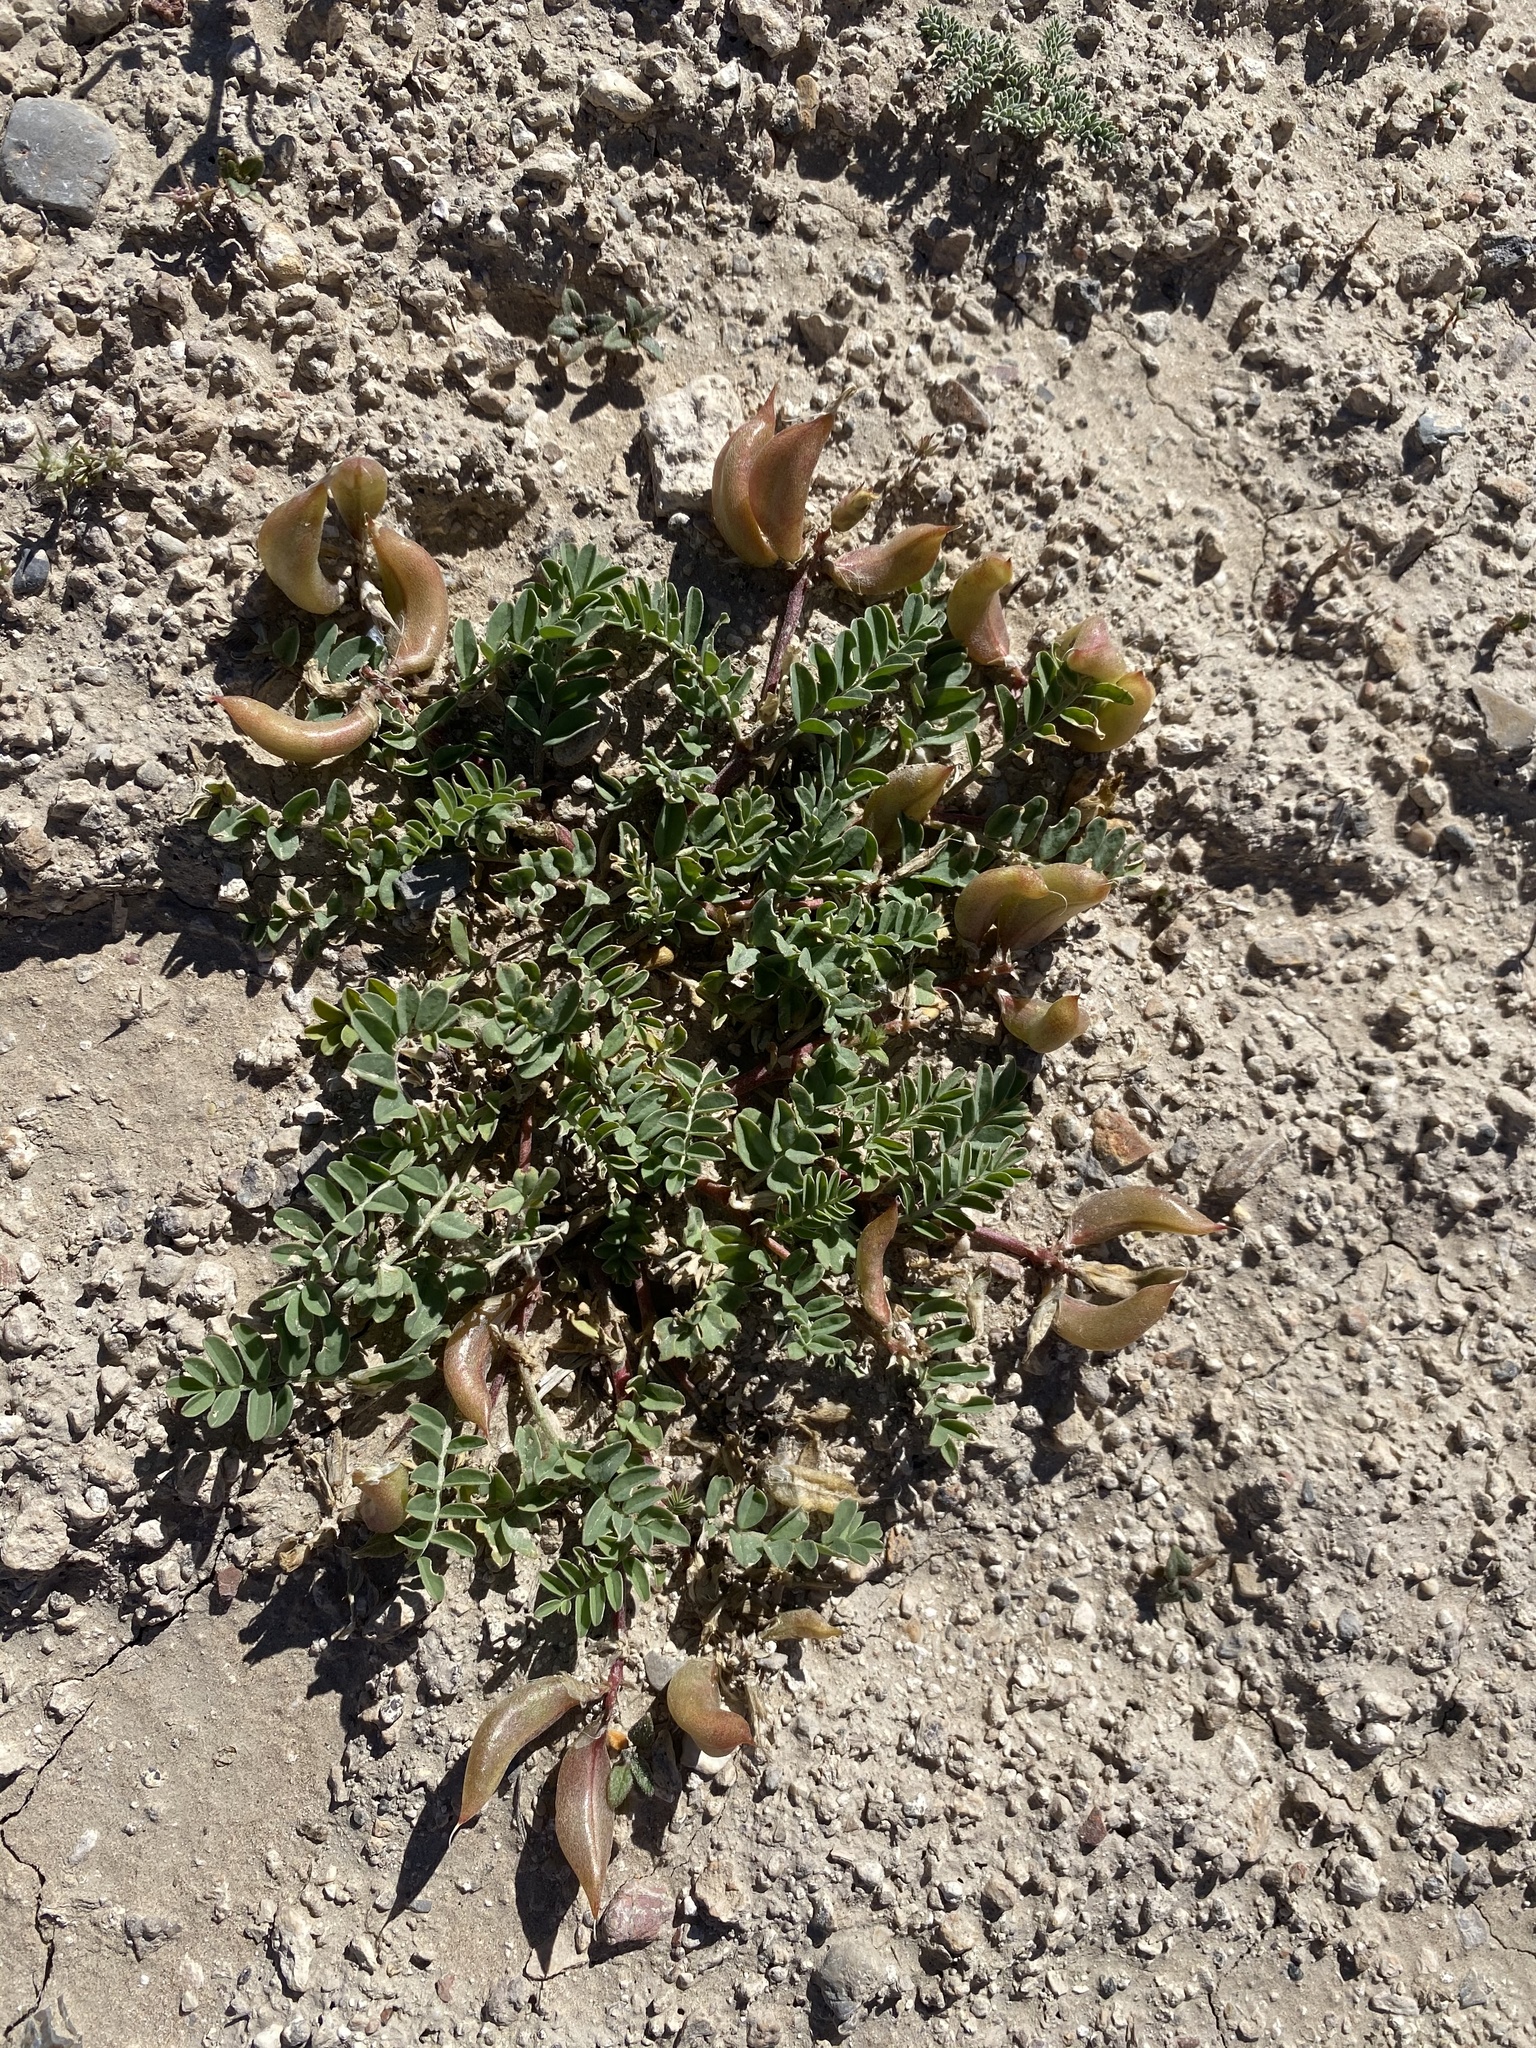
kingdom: Plantae
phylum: Tracheophyta
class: Magnoliopsida
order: Fabales
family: Fabaceae
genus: Astragalus
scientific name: Astragalus cibarius
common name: Browse milk-vetch
